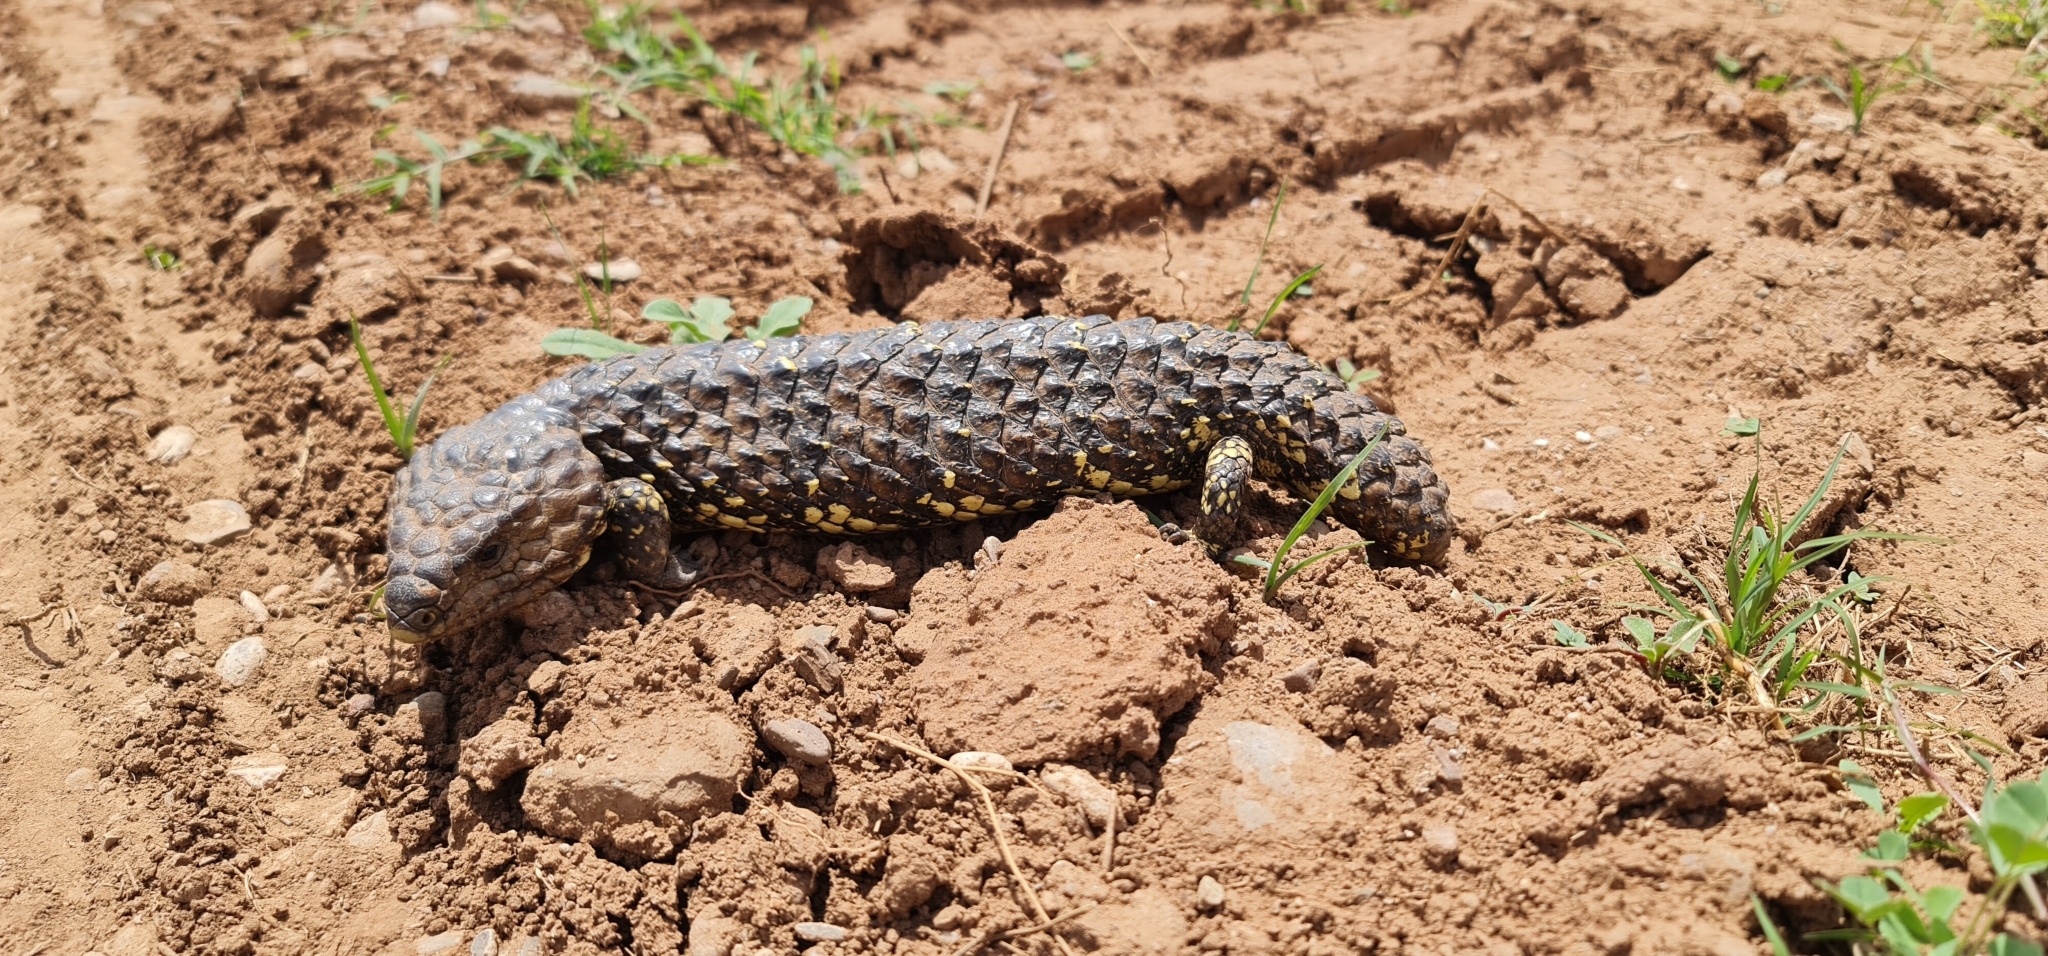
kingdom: Animalia
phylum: Chordata
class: Squamata
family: Scincidae
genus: Tiliqua
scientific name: Tiliqua rugosa
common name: Pinecone lizard
